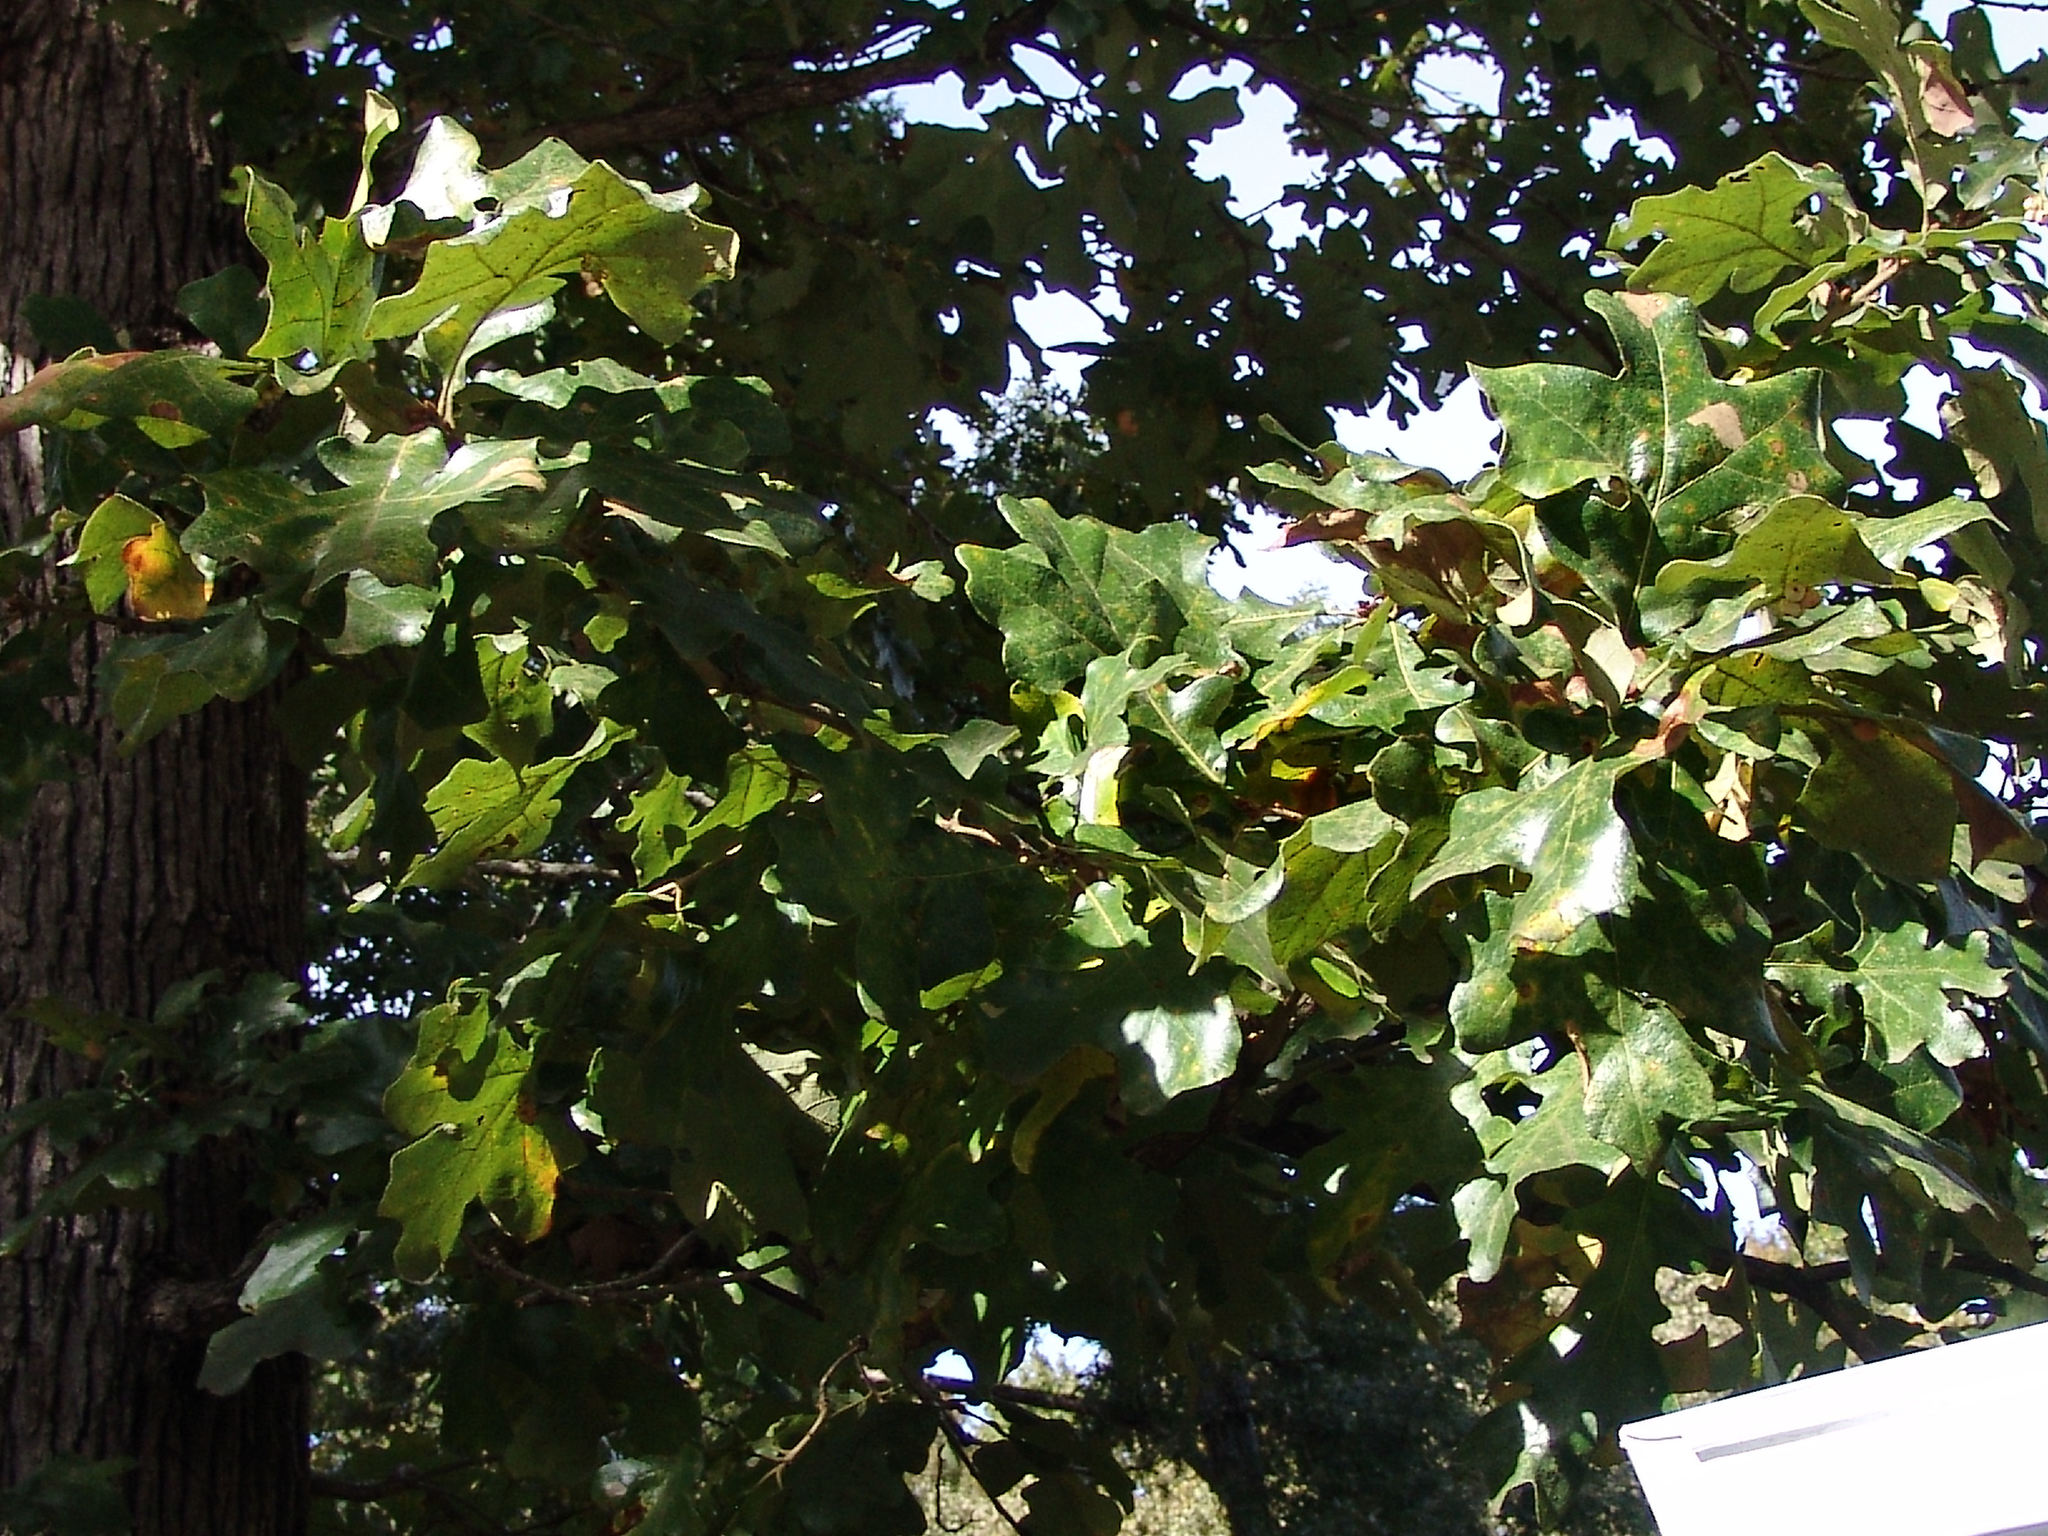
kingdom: Animalia
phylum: Arthropoda
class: Insecta
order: Hymenoptera
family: Cynipidae
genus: Andricus
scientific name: Andricus Druon pattoni
